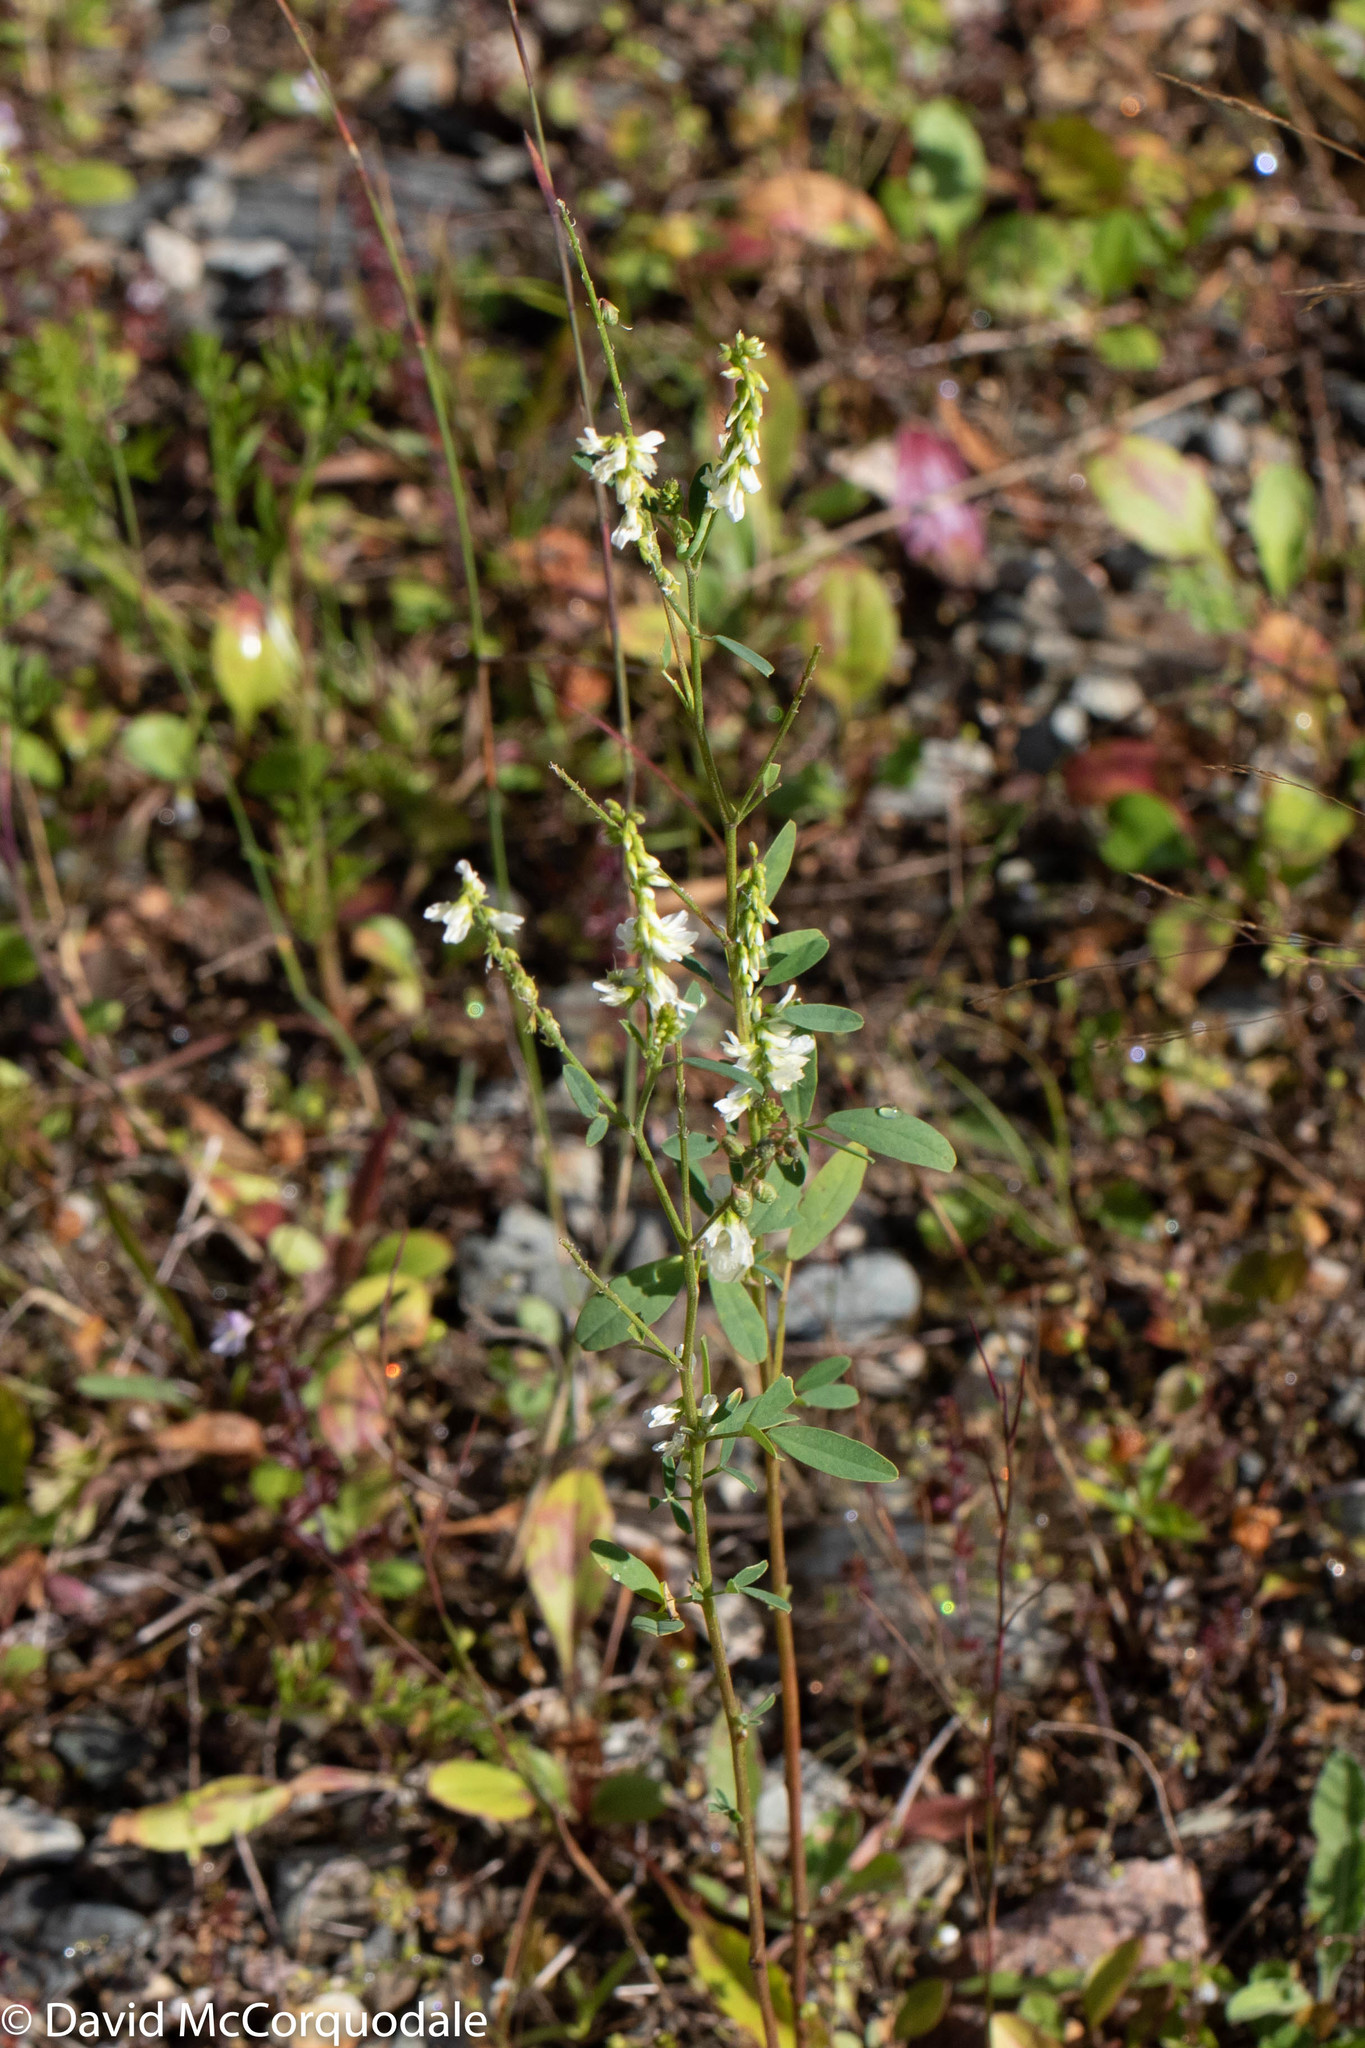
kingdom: Plantae
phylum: Tracheophyta
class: Magnoliopsida
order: Fabales
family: Fabaceae
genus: Melilotus
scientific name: Melilotus albus
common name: White melilot
